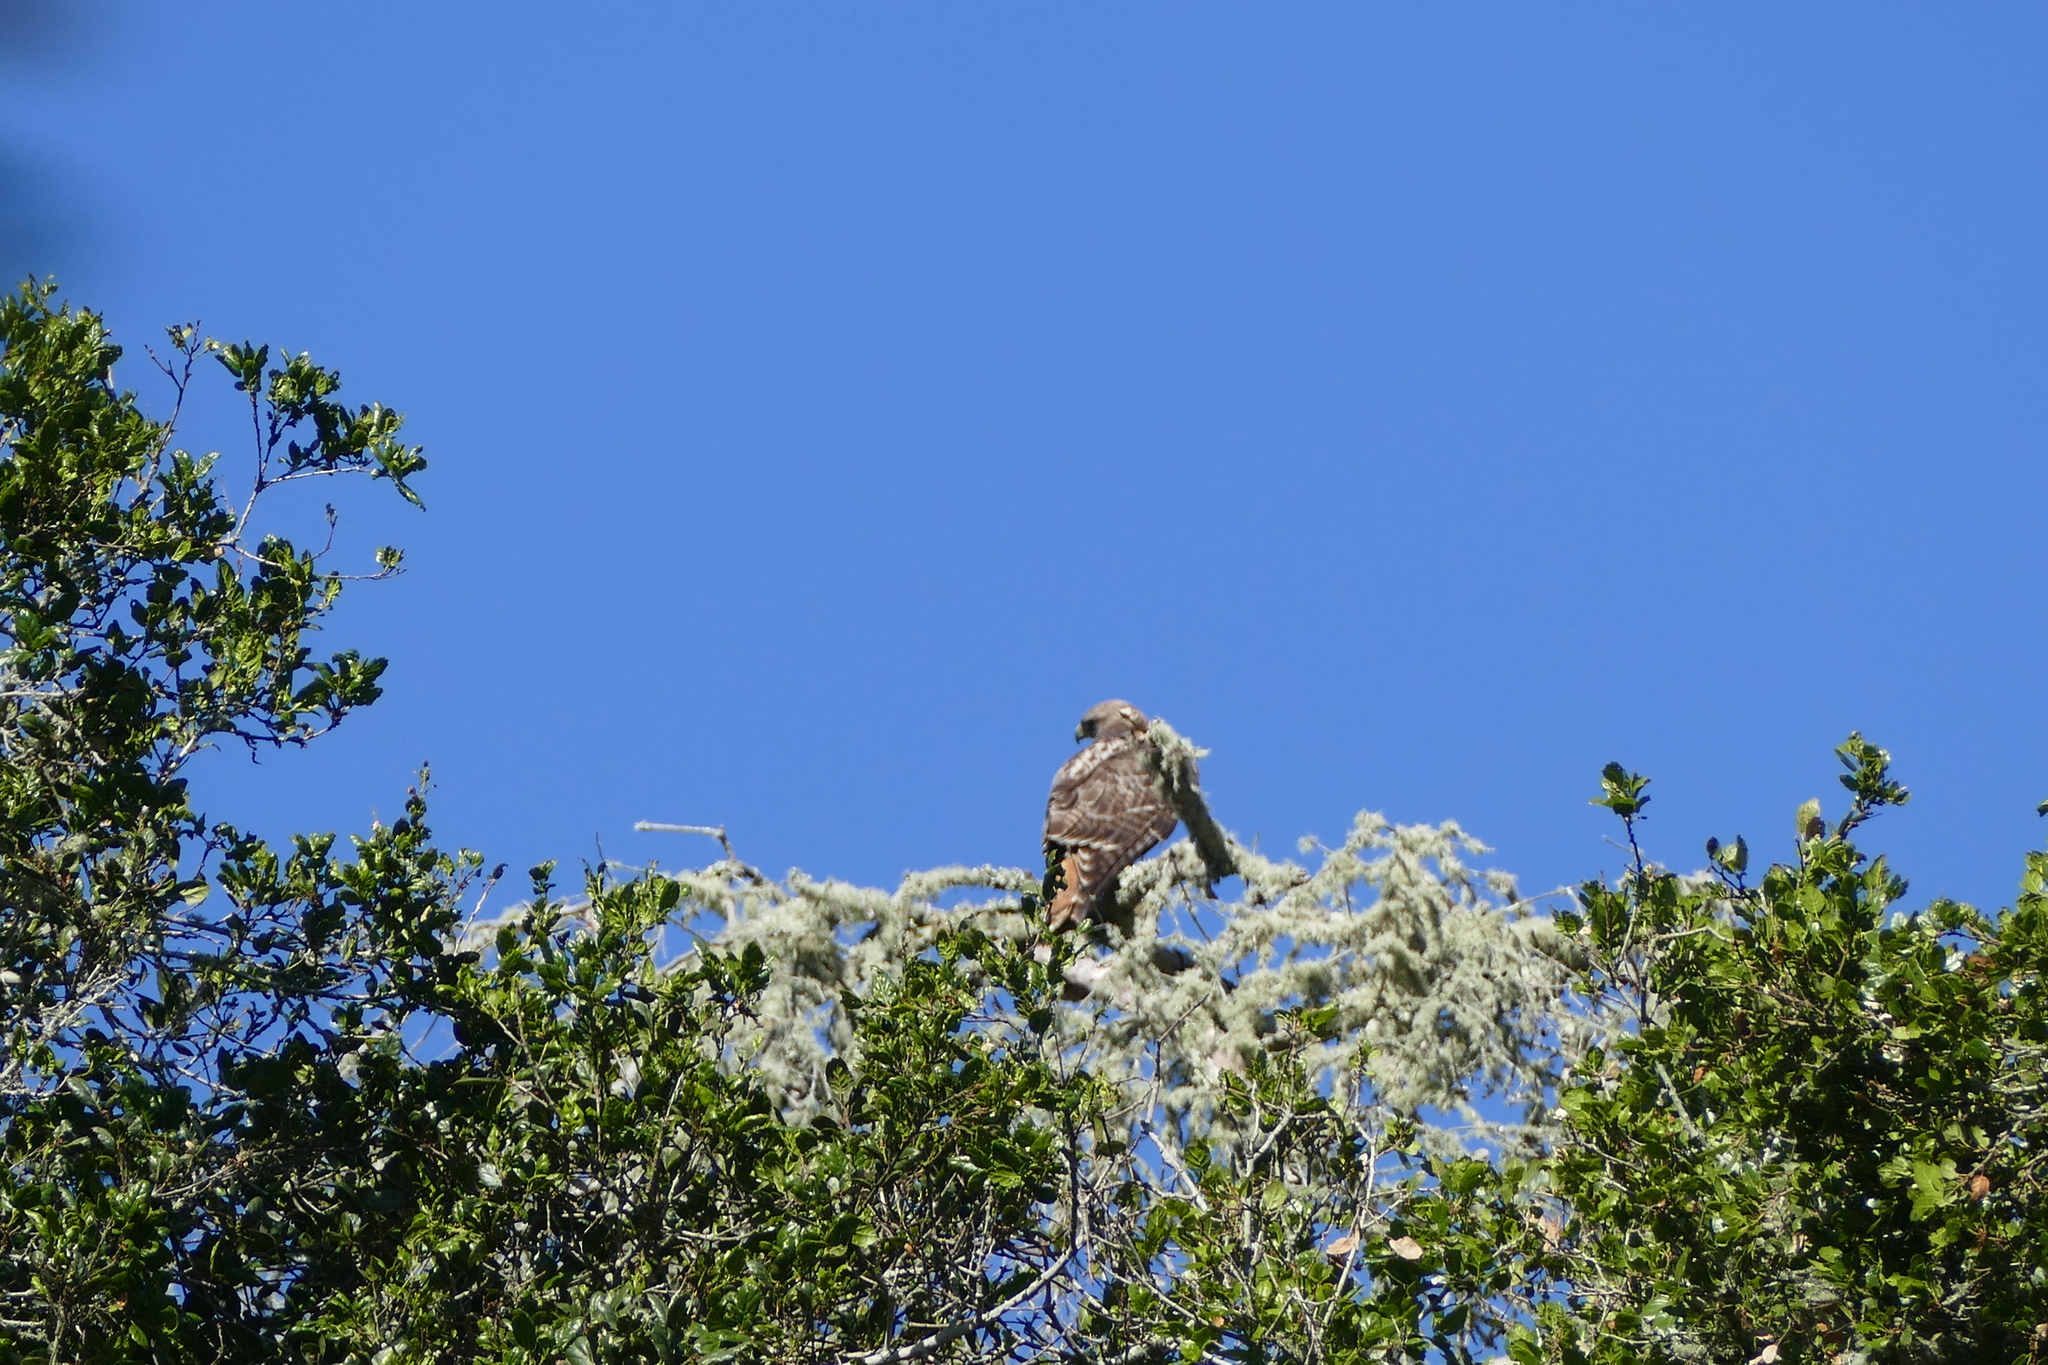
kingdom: Animalia
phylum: Chordata
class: Aves
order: Accipitriformes
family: Accipitridae
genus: Buteo
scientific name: Buteo jamaicensis
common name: Red-tailed hawk
